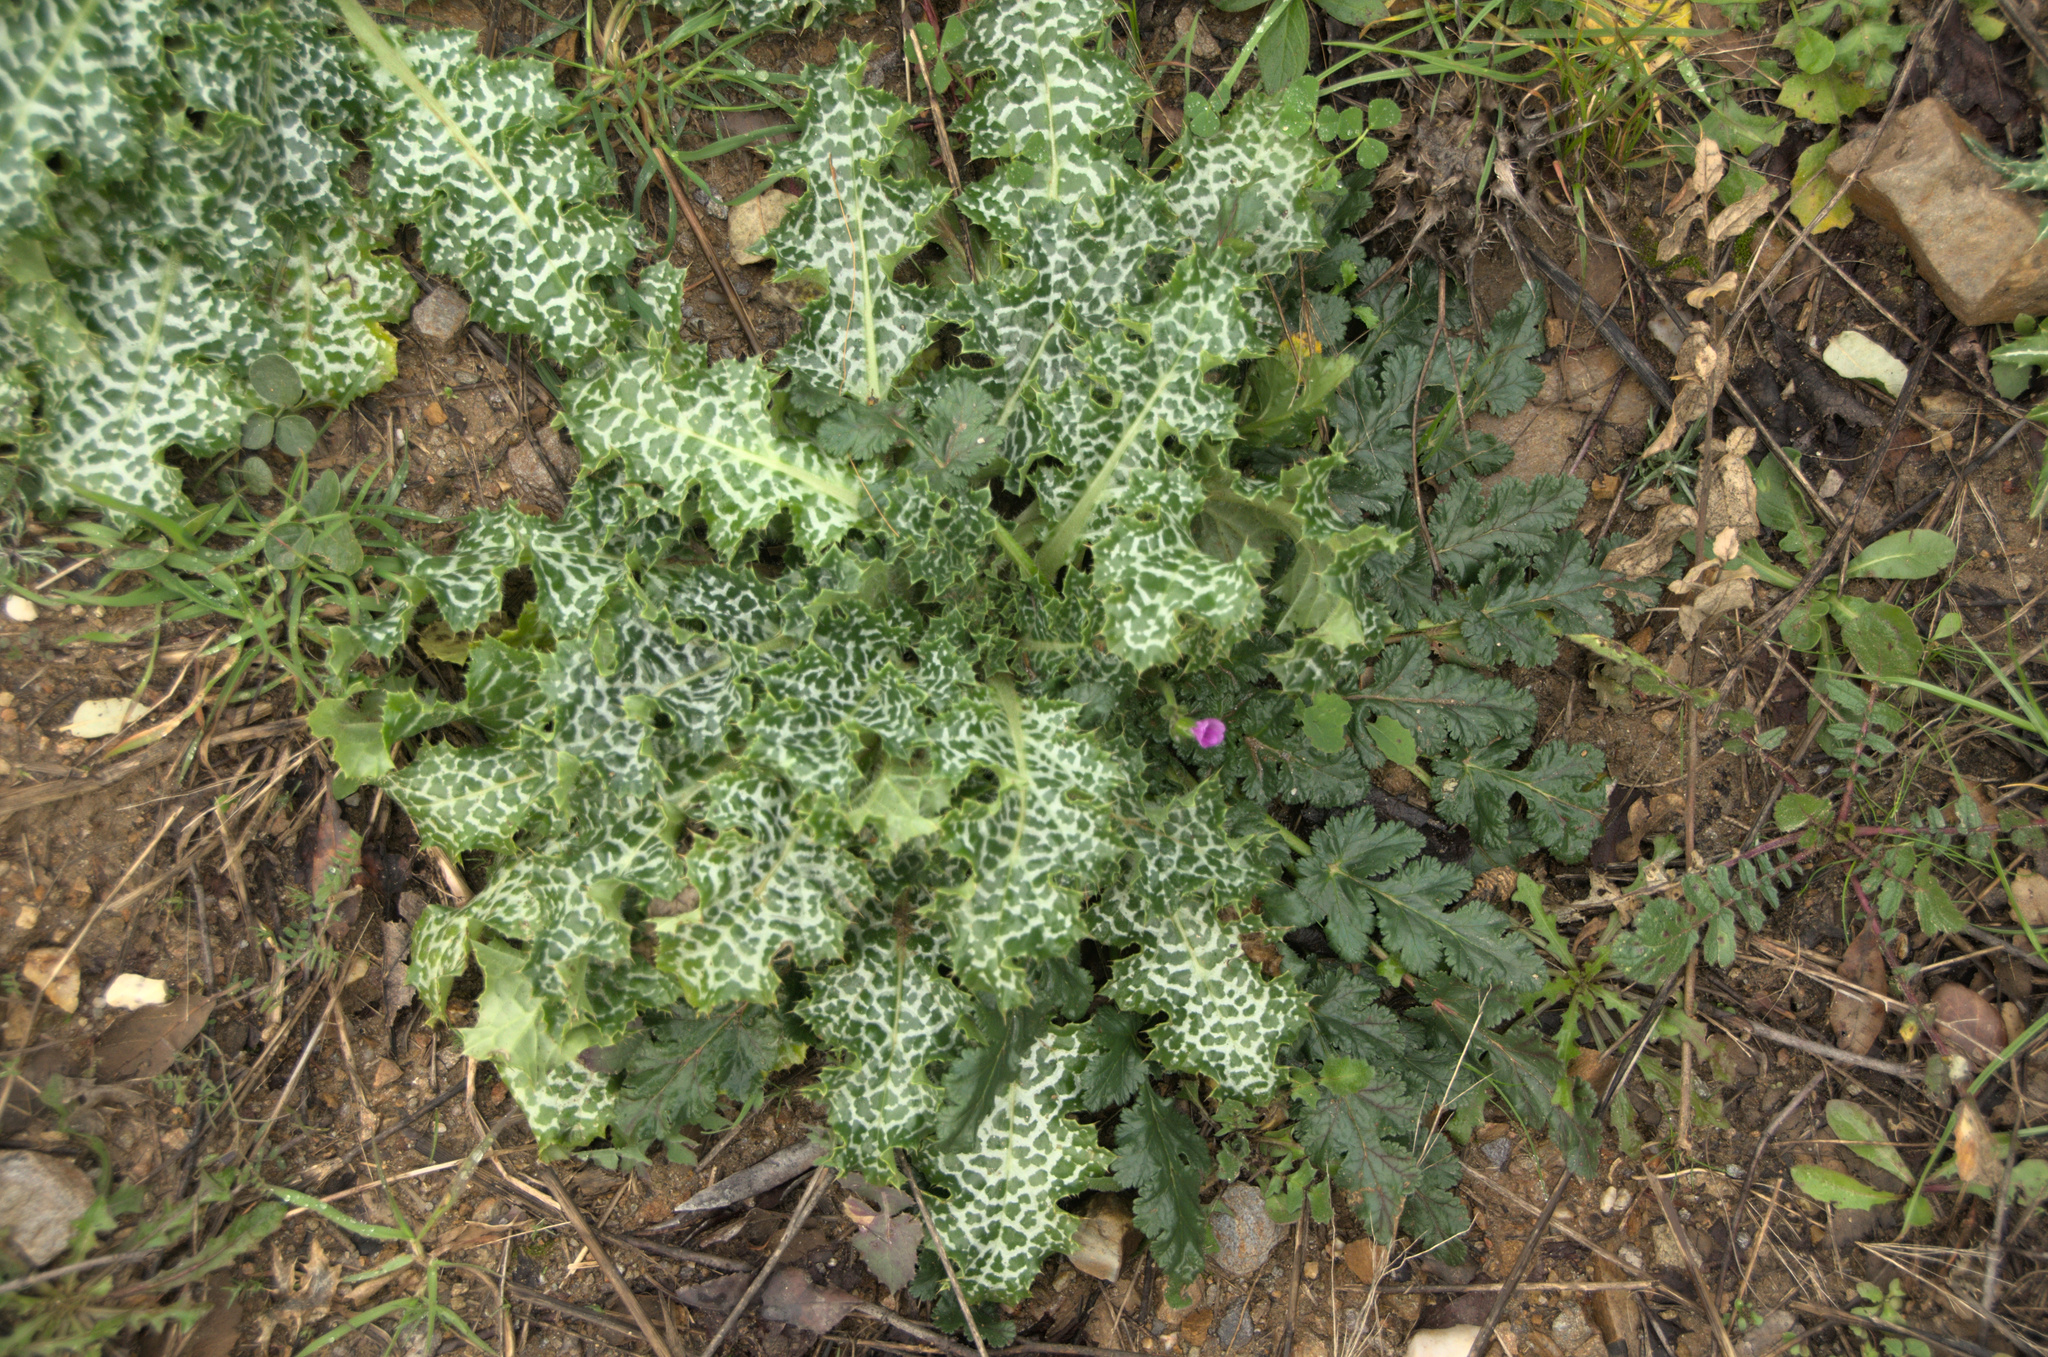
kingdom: Plantae
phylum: Tracheophyta
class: Magnoliopsida
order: Asterales
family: Asteraceae
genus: Silybum
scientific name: Silybum marianum
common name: Milk thistle
